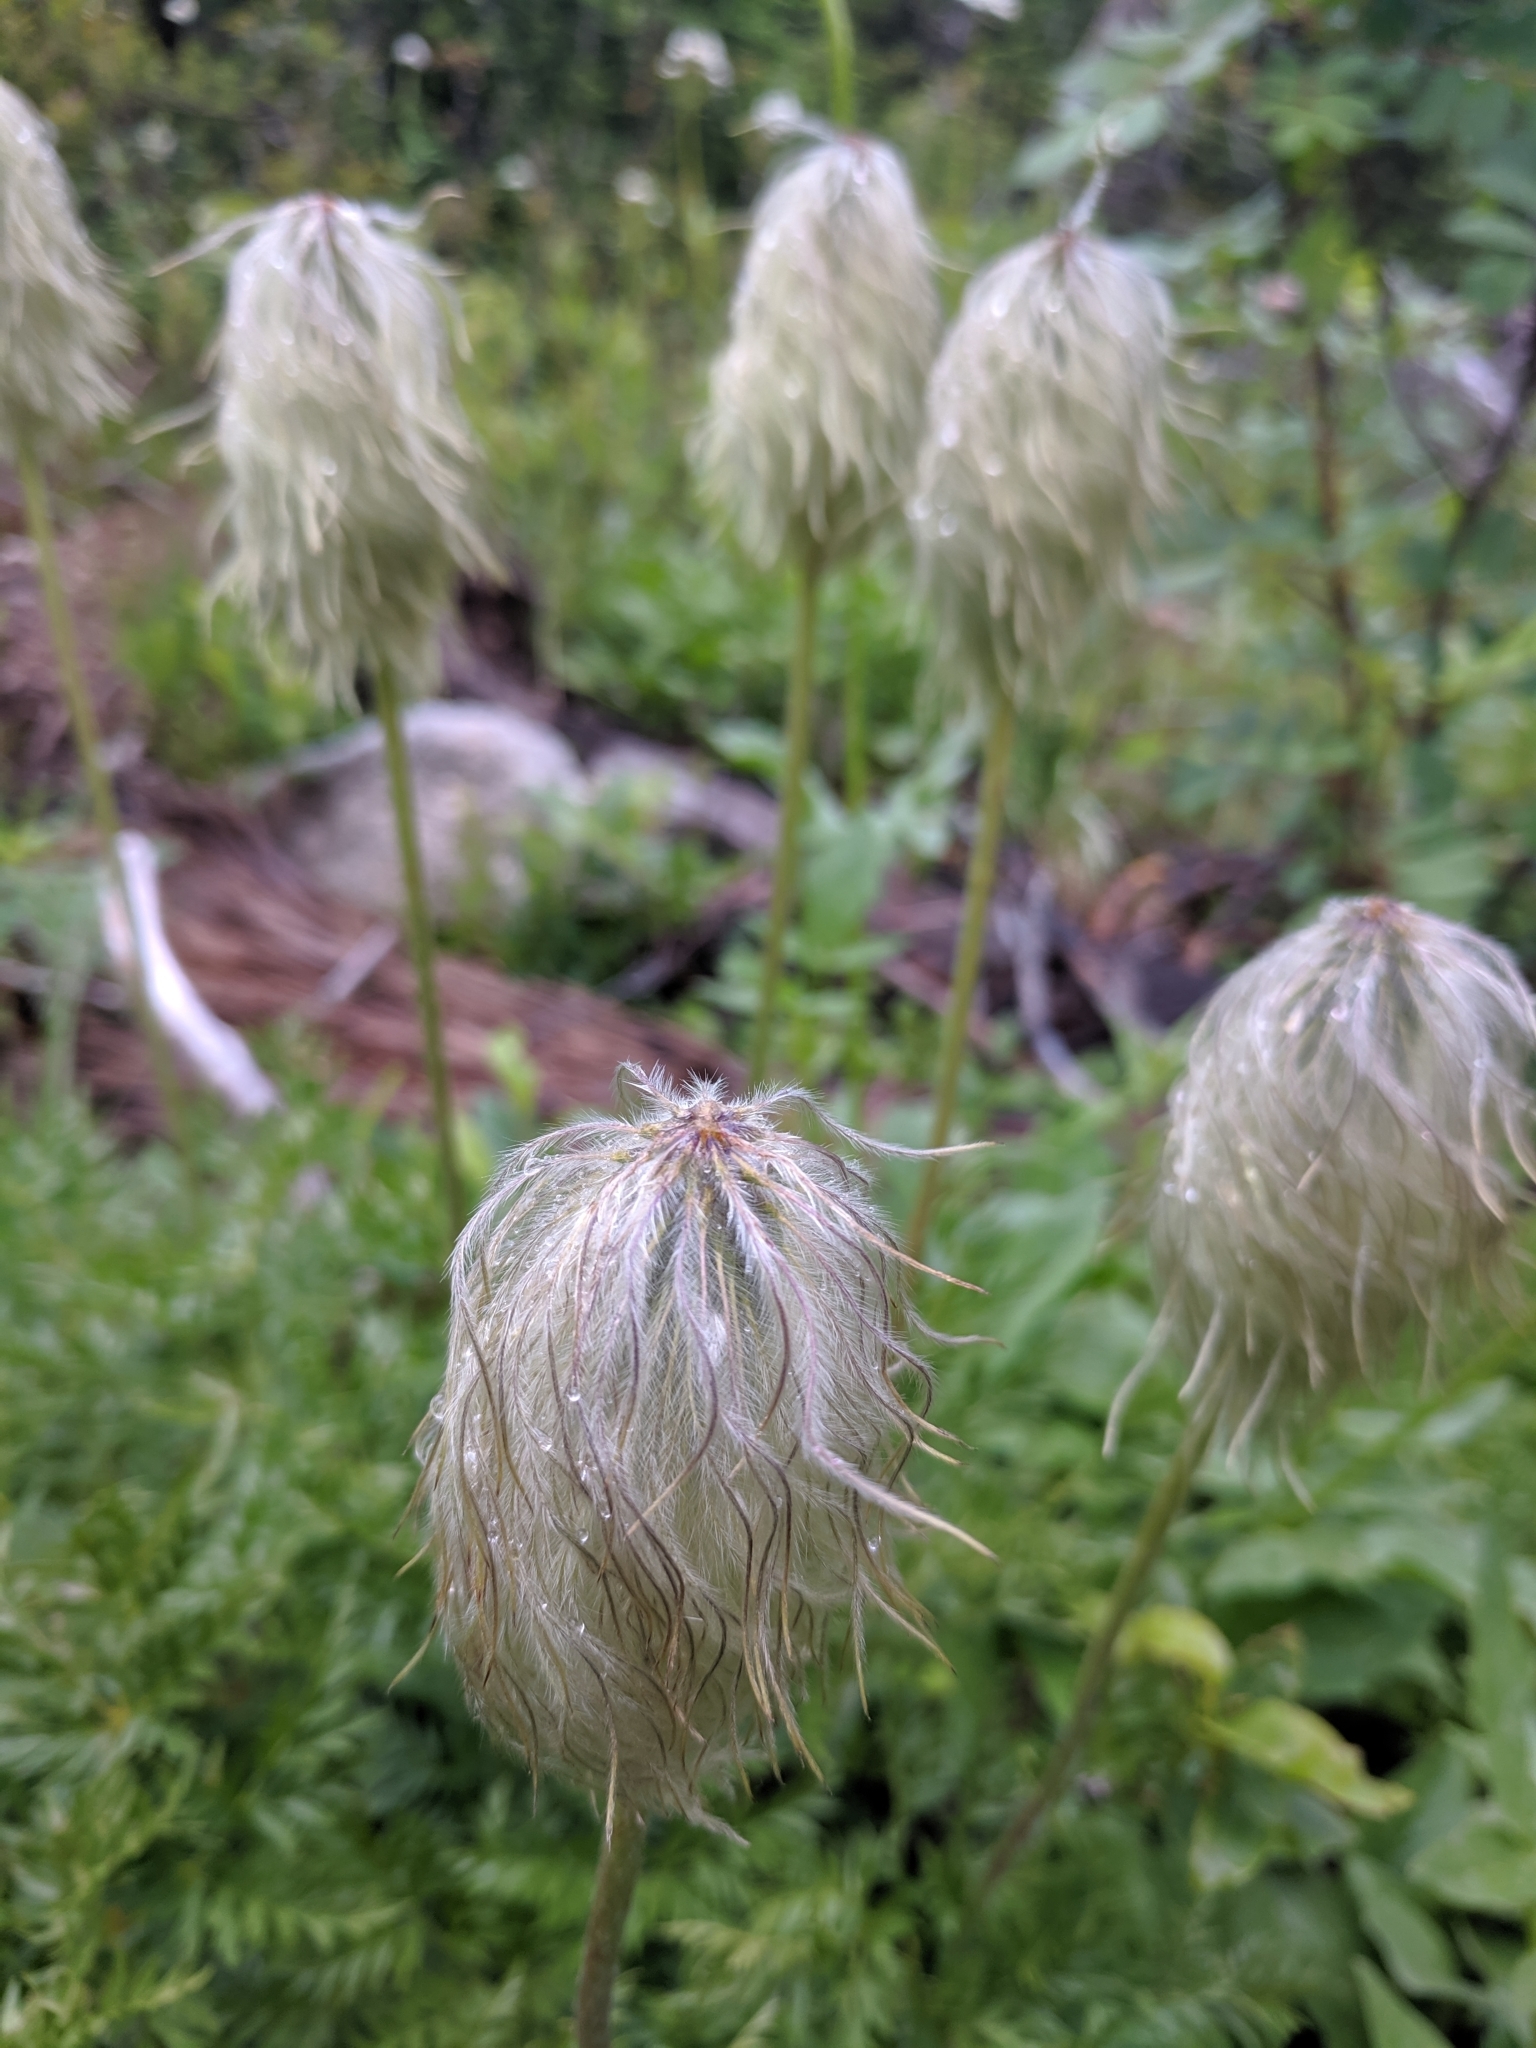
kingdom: Plantae
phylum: Tracheophyta
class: Magnoliopsida
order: Ranunculales
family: Ranunculaceae
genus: Pulsatilla
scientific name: Pulsatilla occidentalis
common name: Mountain pasqueflower
